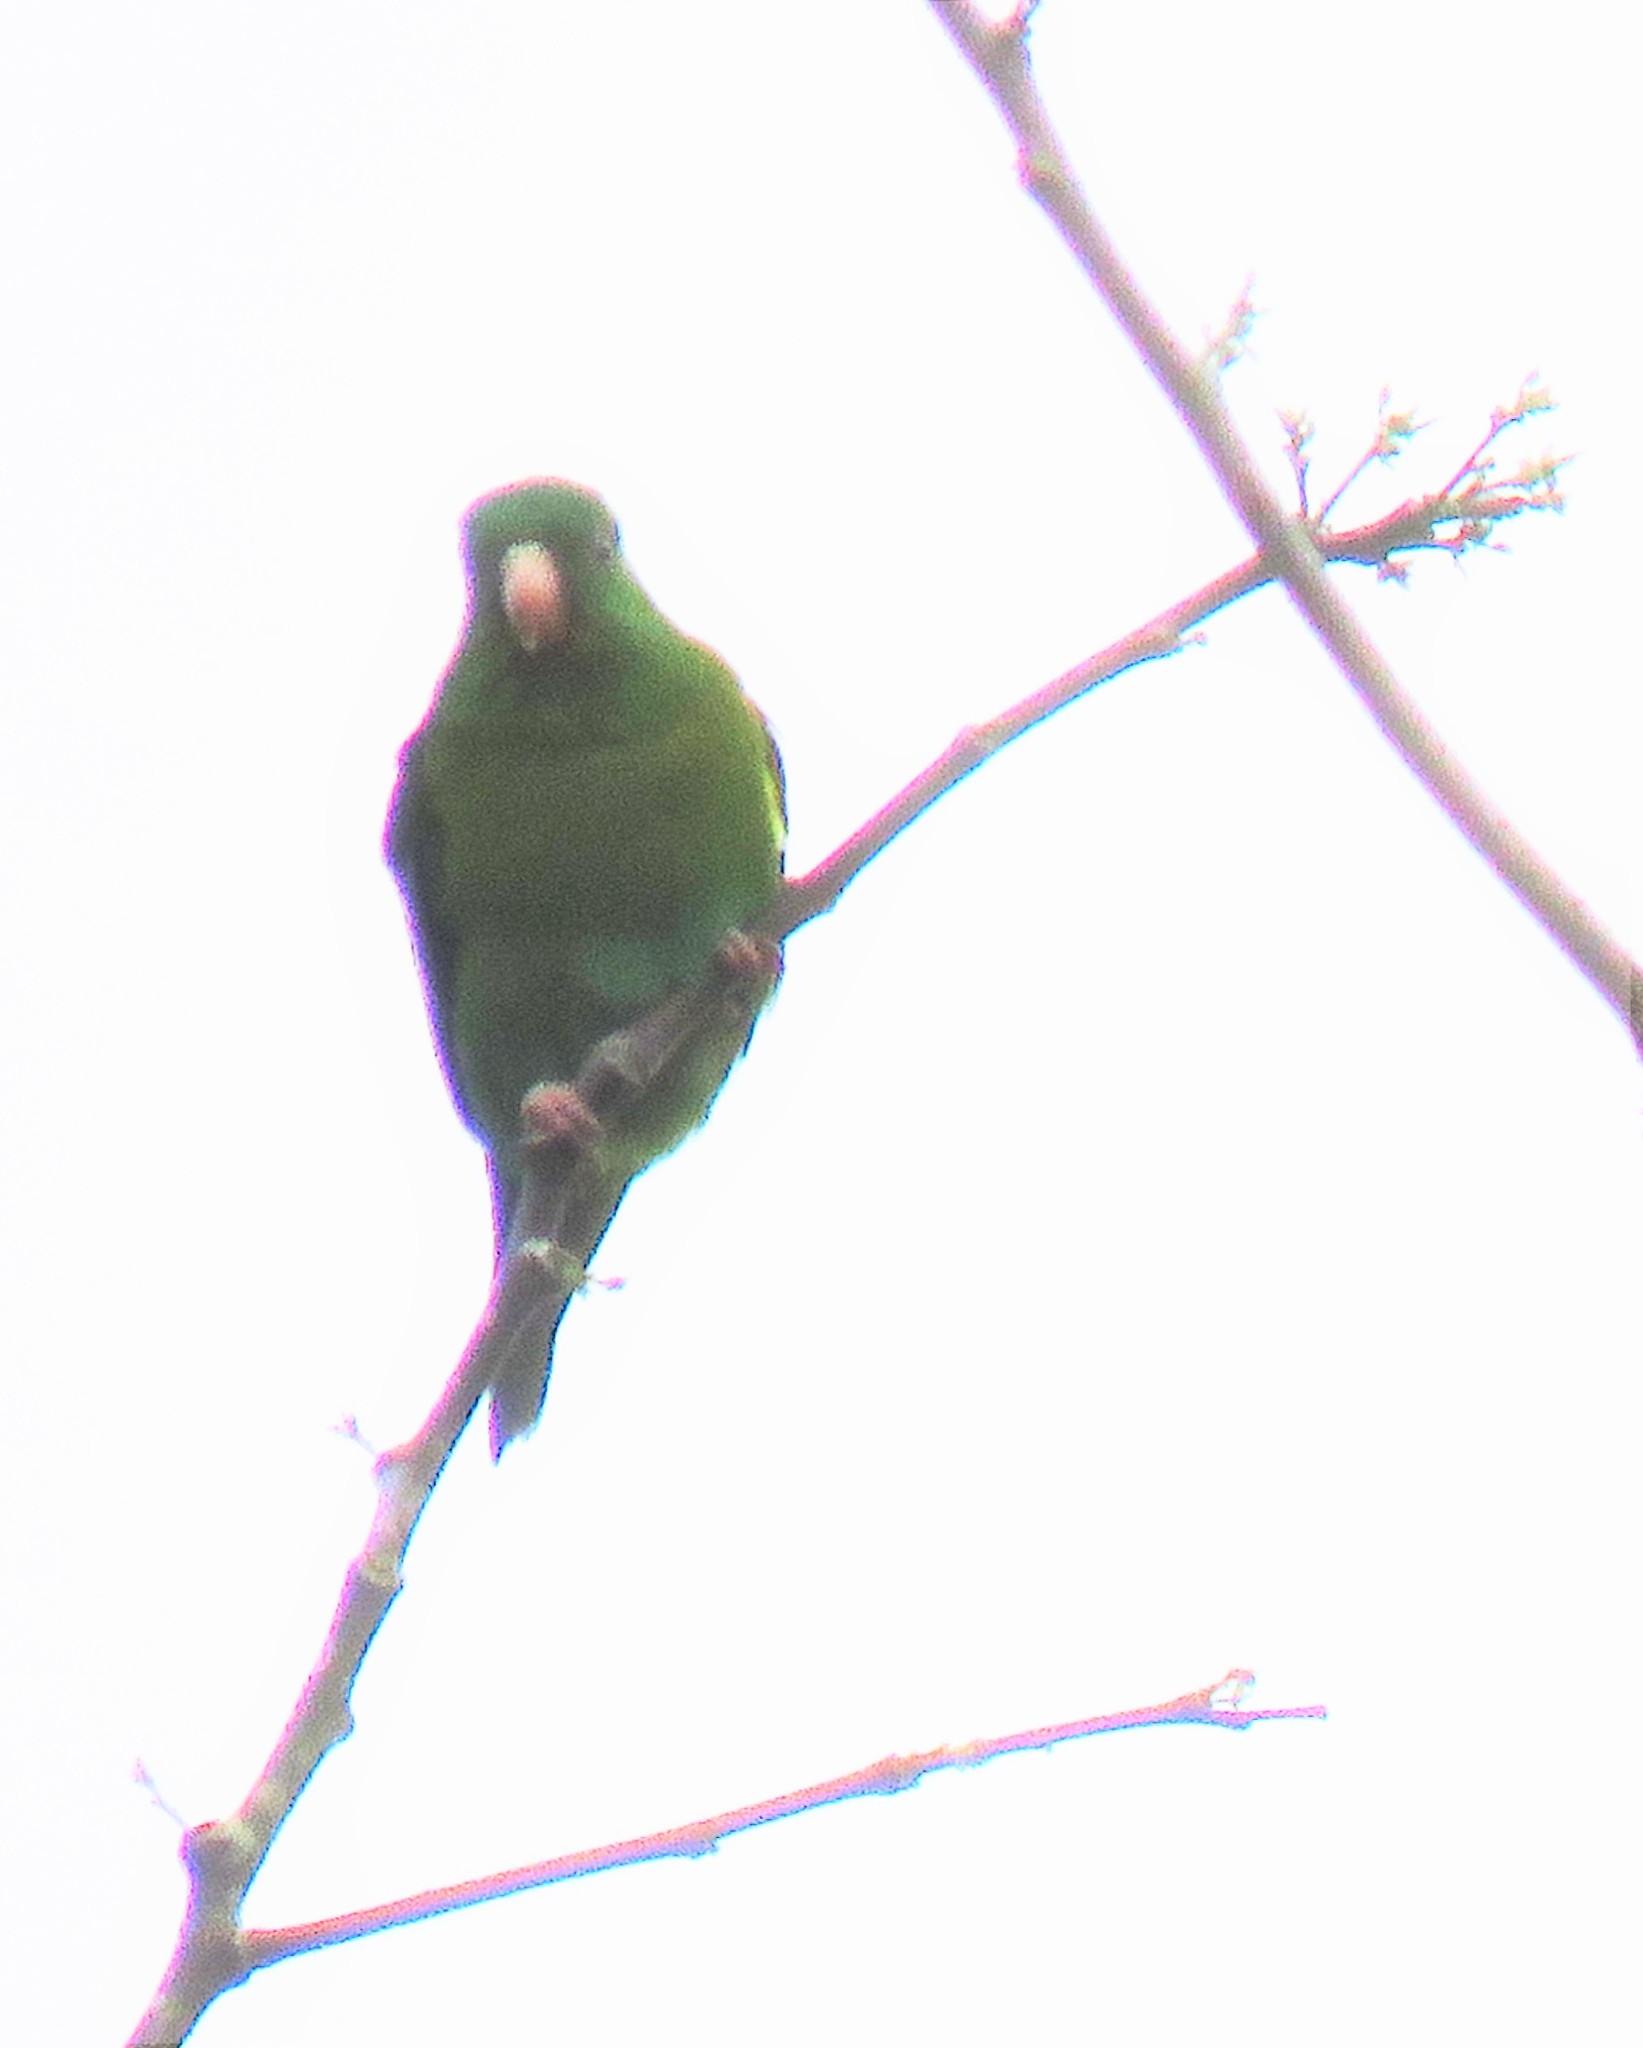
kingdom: Animalia
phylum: Chordata
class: Aves
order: Psittaciformes
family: Psittacidae
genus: Brotogeris
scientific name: Brotogeris jugularis
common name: Orange-chinned parakeet
